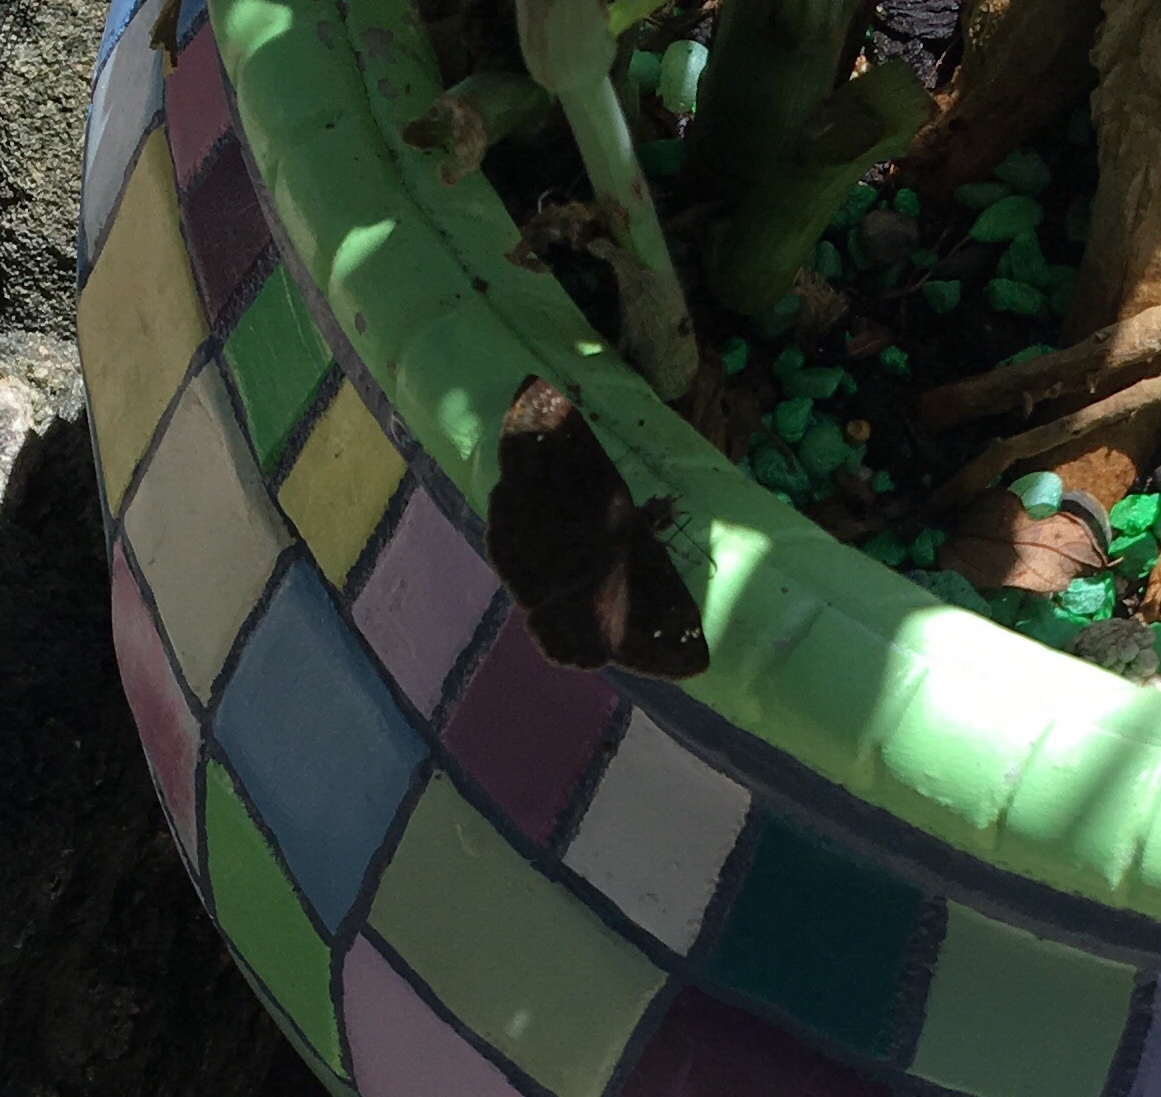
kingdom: Animalia
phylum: Arthropoda
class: Insecta
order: Lepidoptera
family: Hesperiidae
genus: Erynnis
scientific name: Erynnis horatius
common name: Horace's duskywing
